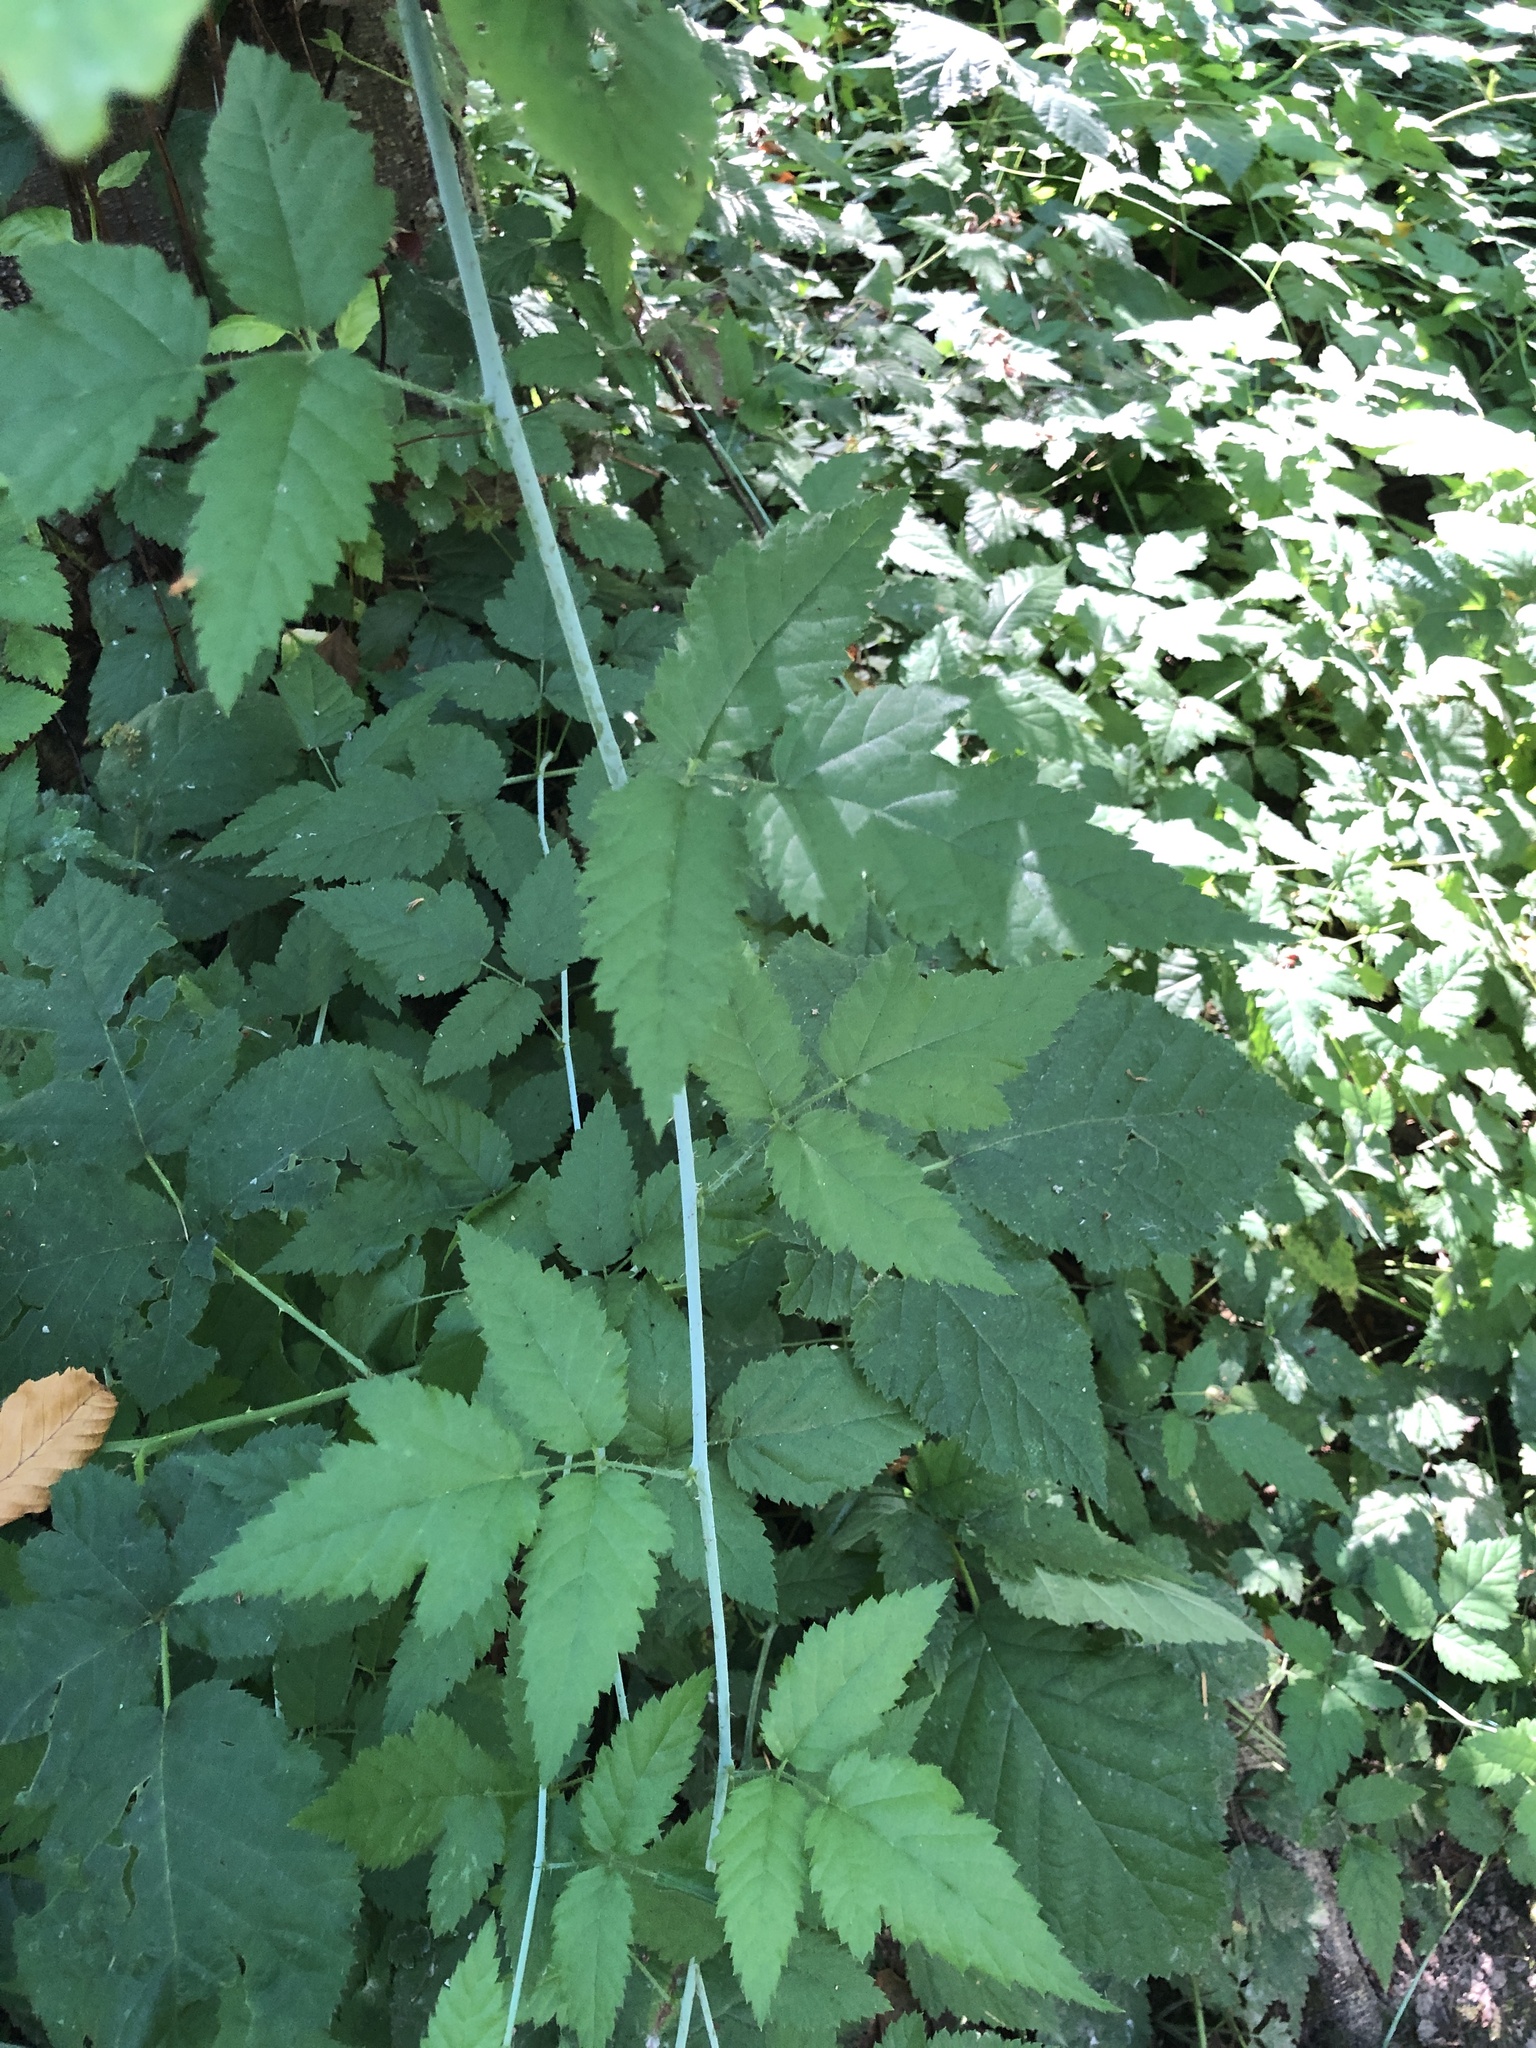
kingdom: Plantae
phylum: Tracheophyta
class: Magnoliopsida
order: Rosales
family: Rosaceae
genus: Rubus
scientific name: Rubus ursinus
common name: Pacific blackberry
